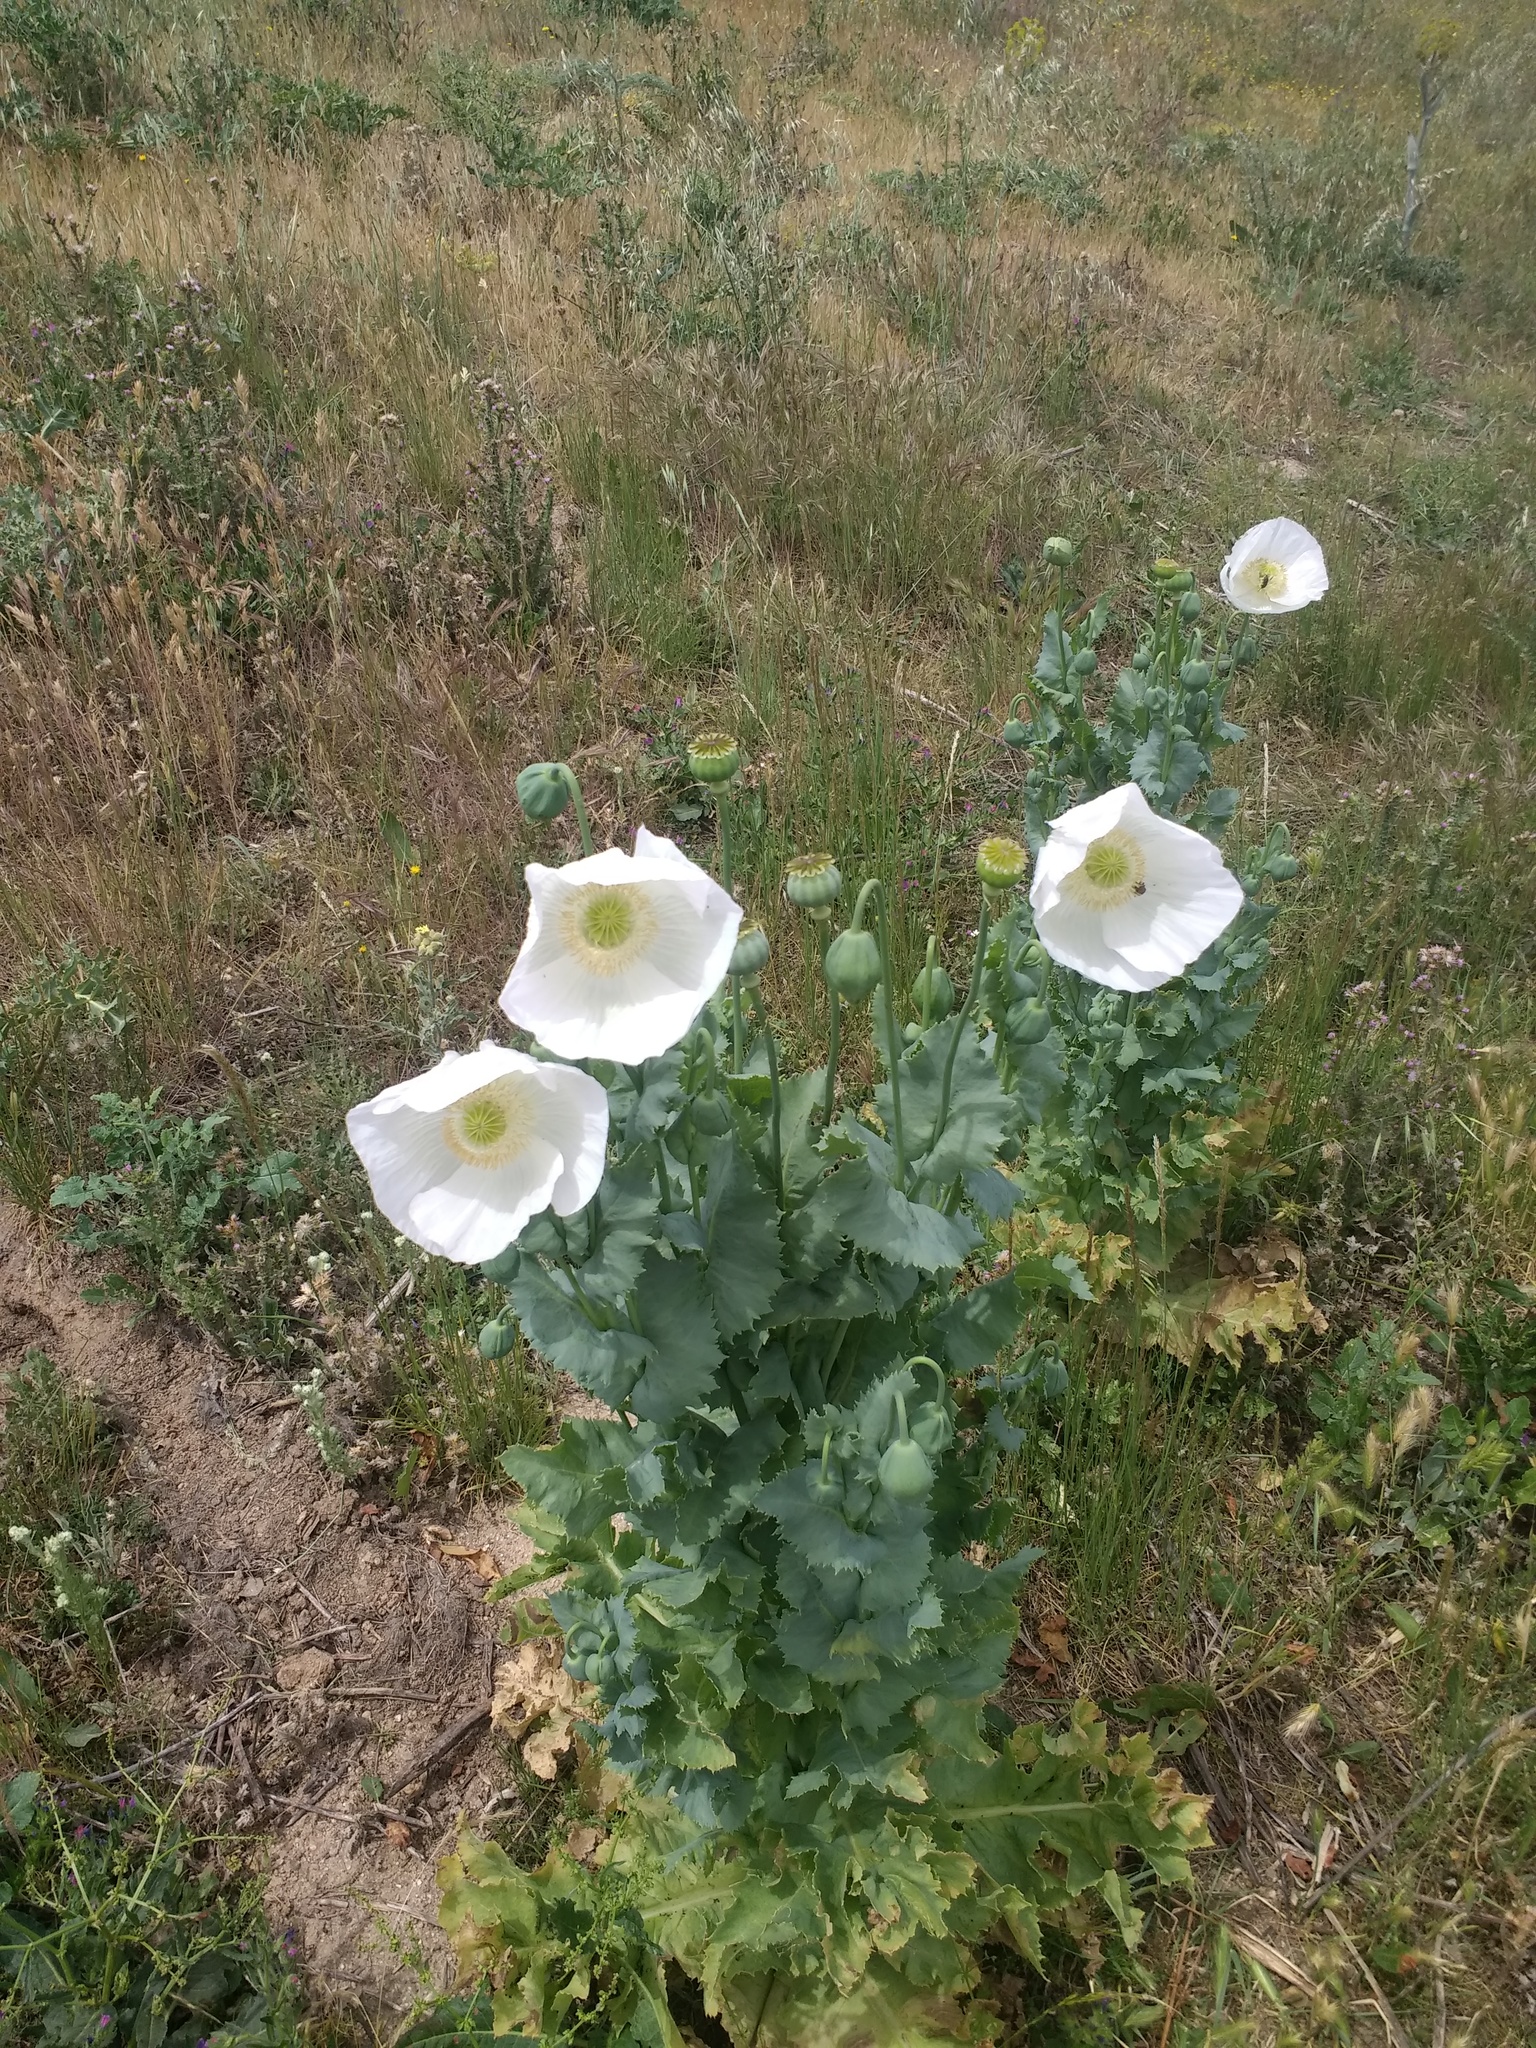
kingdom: Plantae
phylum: Tracheophyta
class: Magnoliopsida
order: Ranunculales
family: Papaveraceae
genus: Papaver
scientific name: Papaver somniferum
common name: Opium poppy
